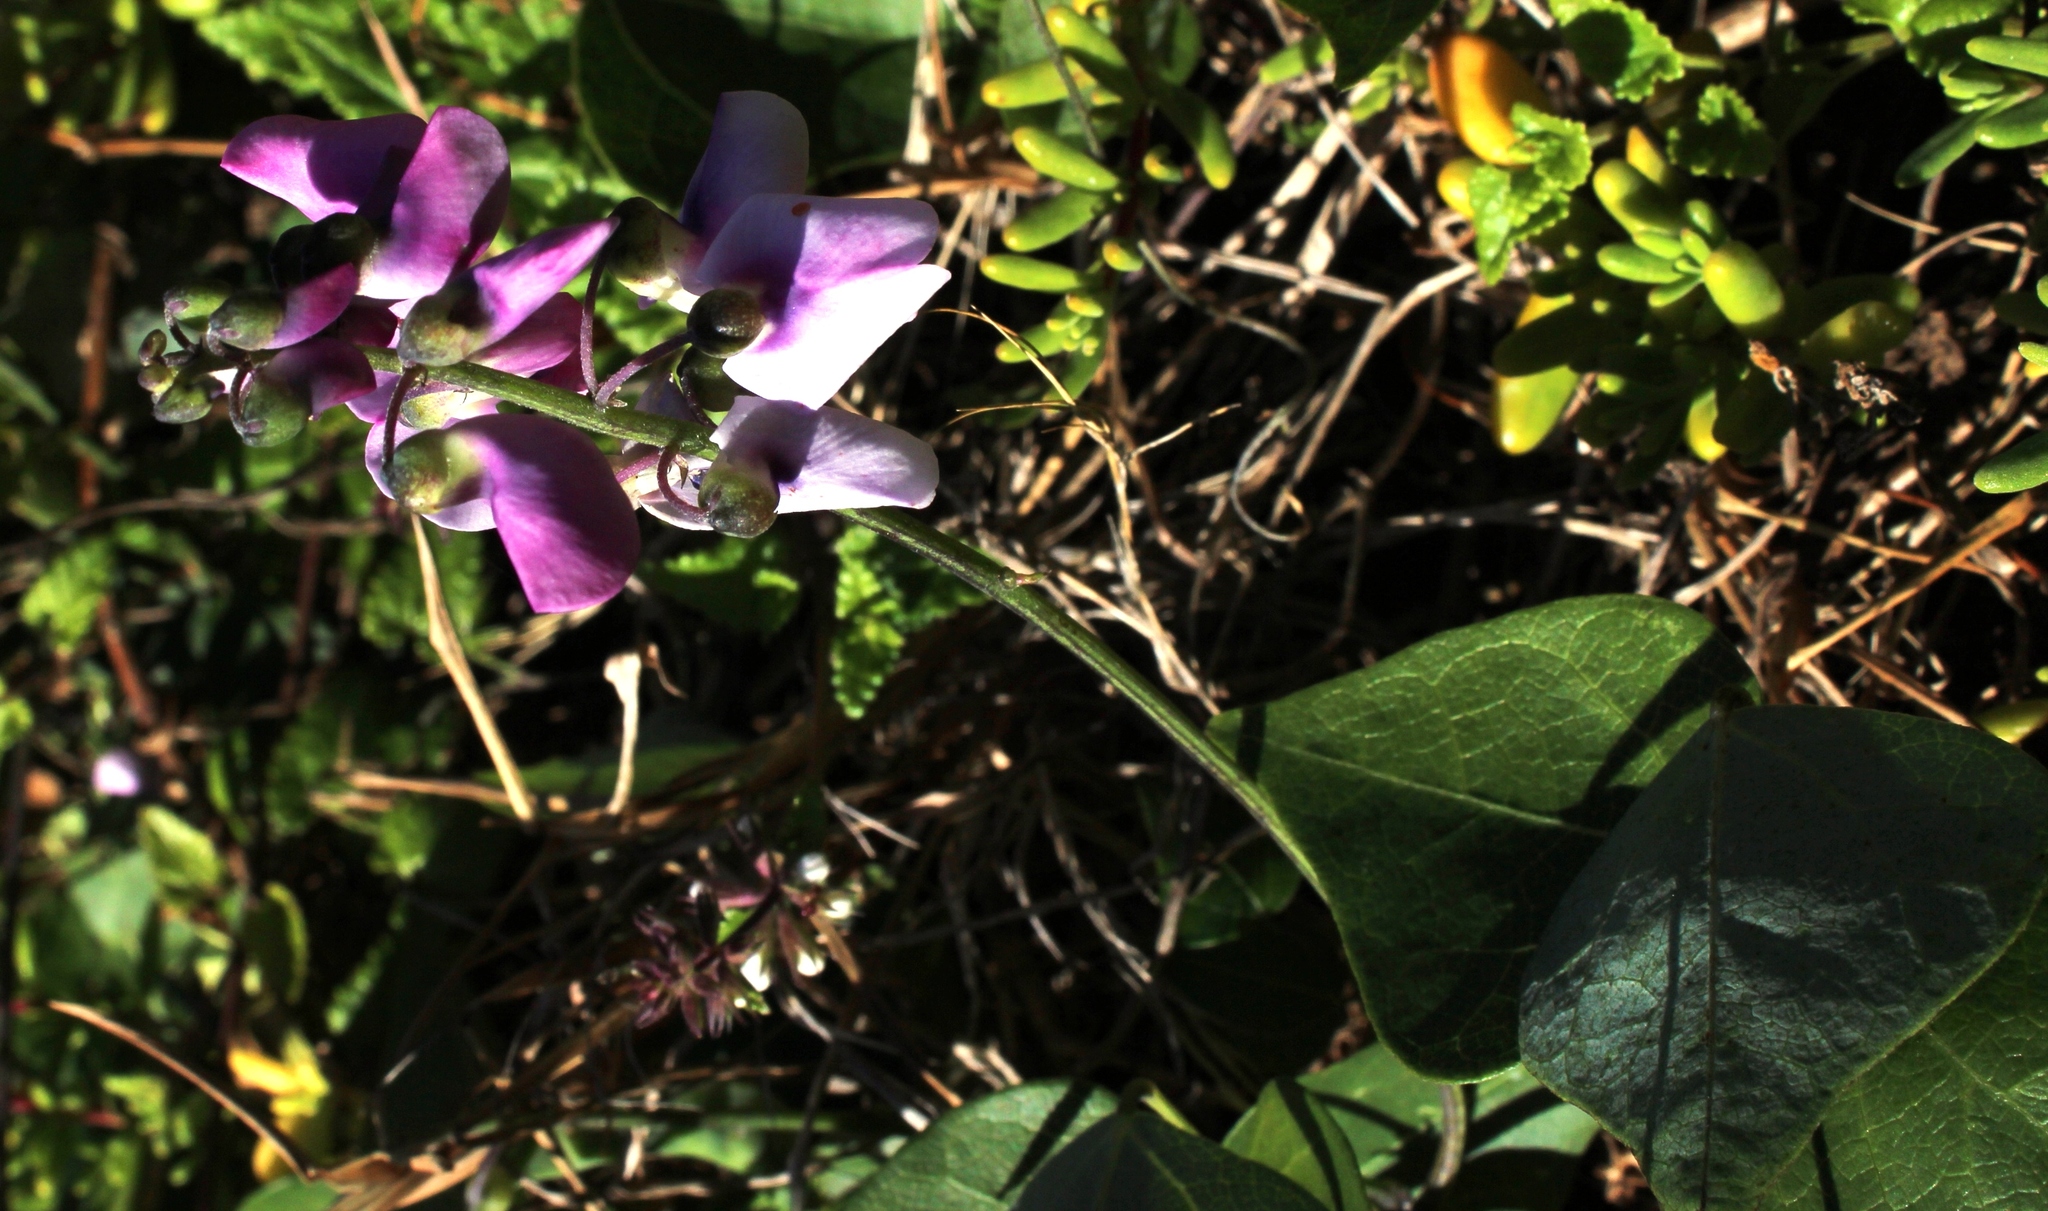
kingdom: Plantae
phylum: Tracheophyta
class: Magnoliopsida
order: Fabales
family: Fabaceae
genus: Dipogon
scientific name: Dipogon lignosus
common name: Okie bean
